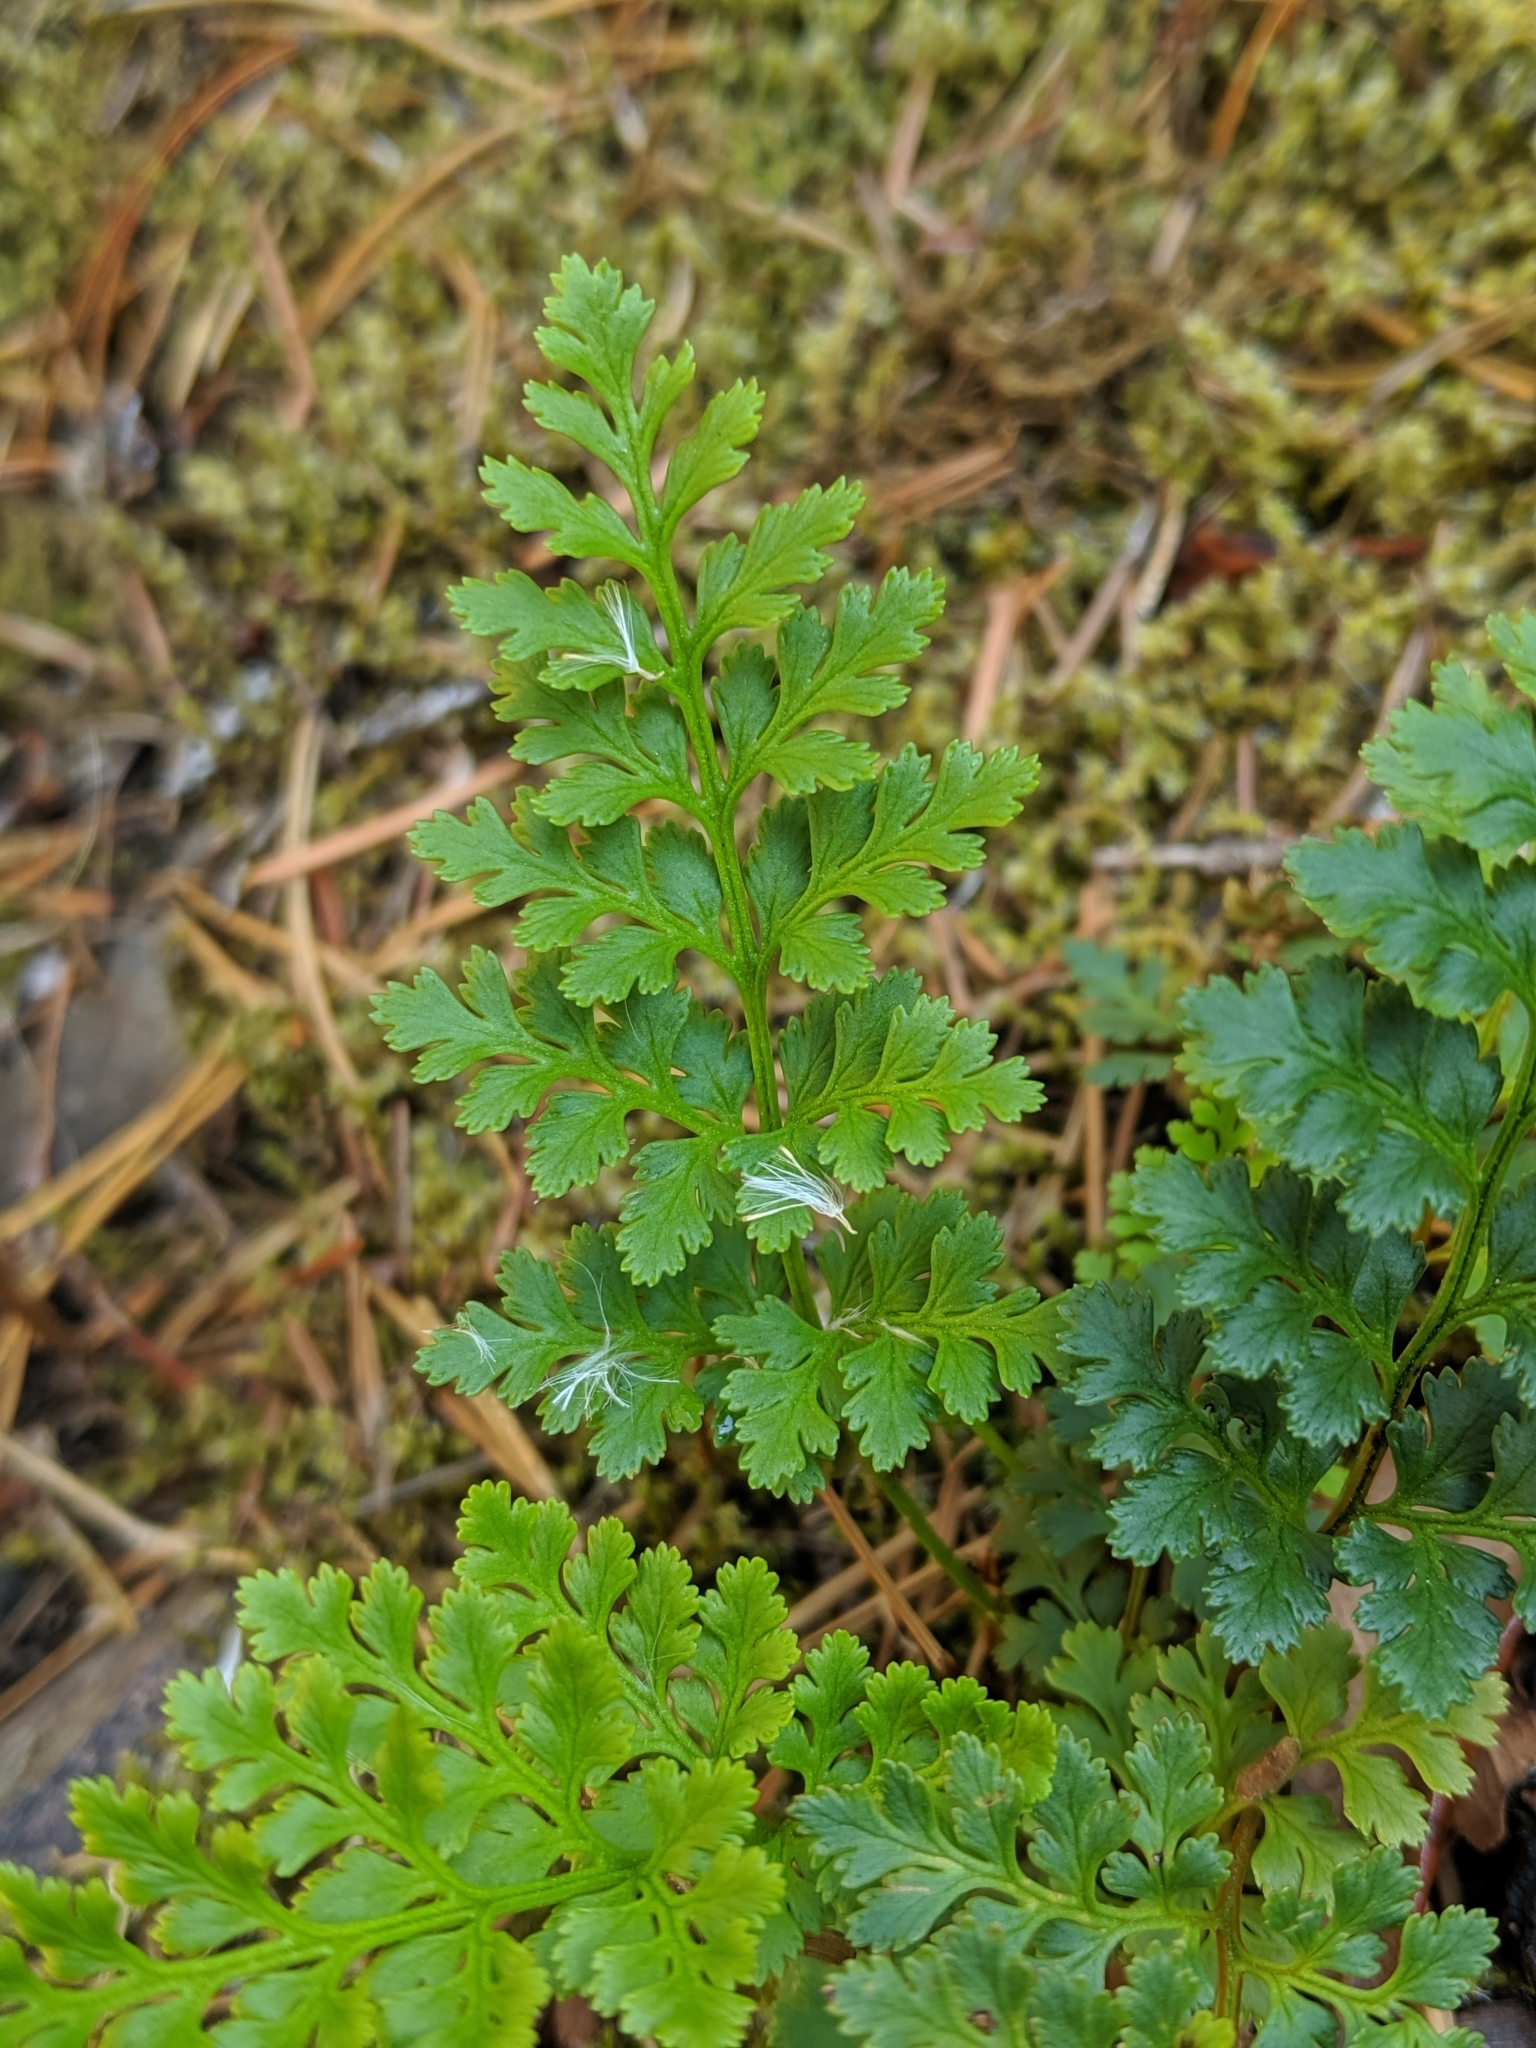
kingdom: Plantae
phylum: Tracheophyta
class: Polypodiopsida
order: Polypodiales
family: Pteridaceae
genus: Cryptogramma
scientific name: Cryptogramma acrostichoides
